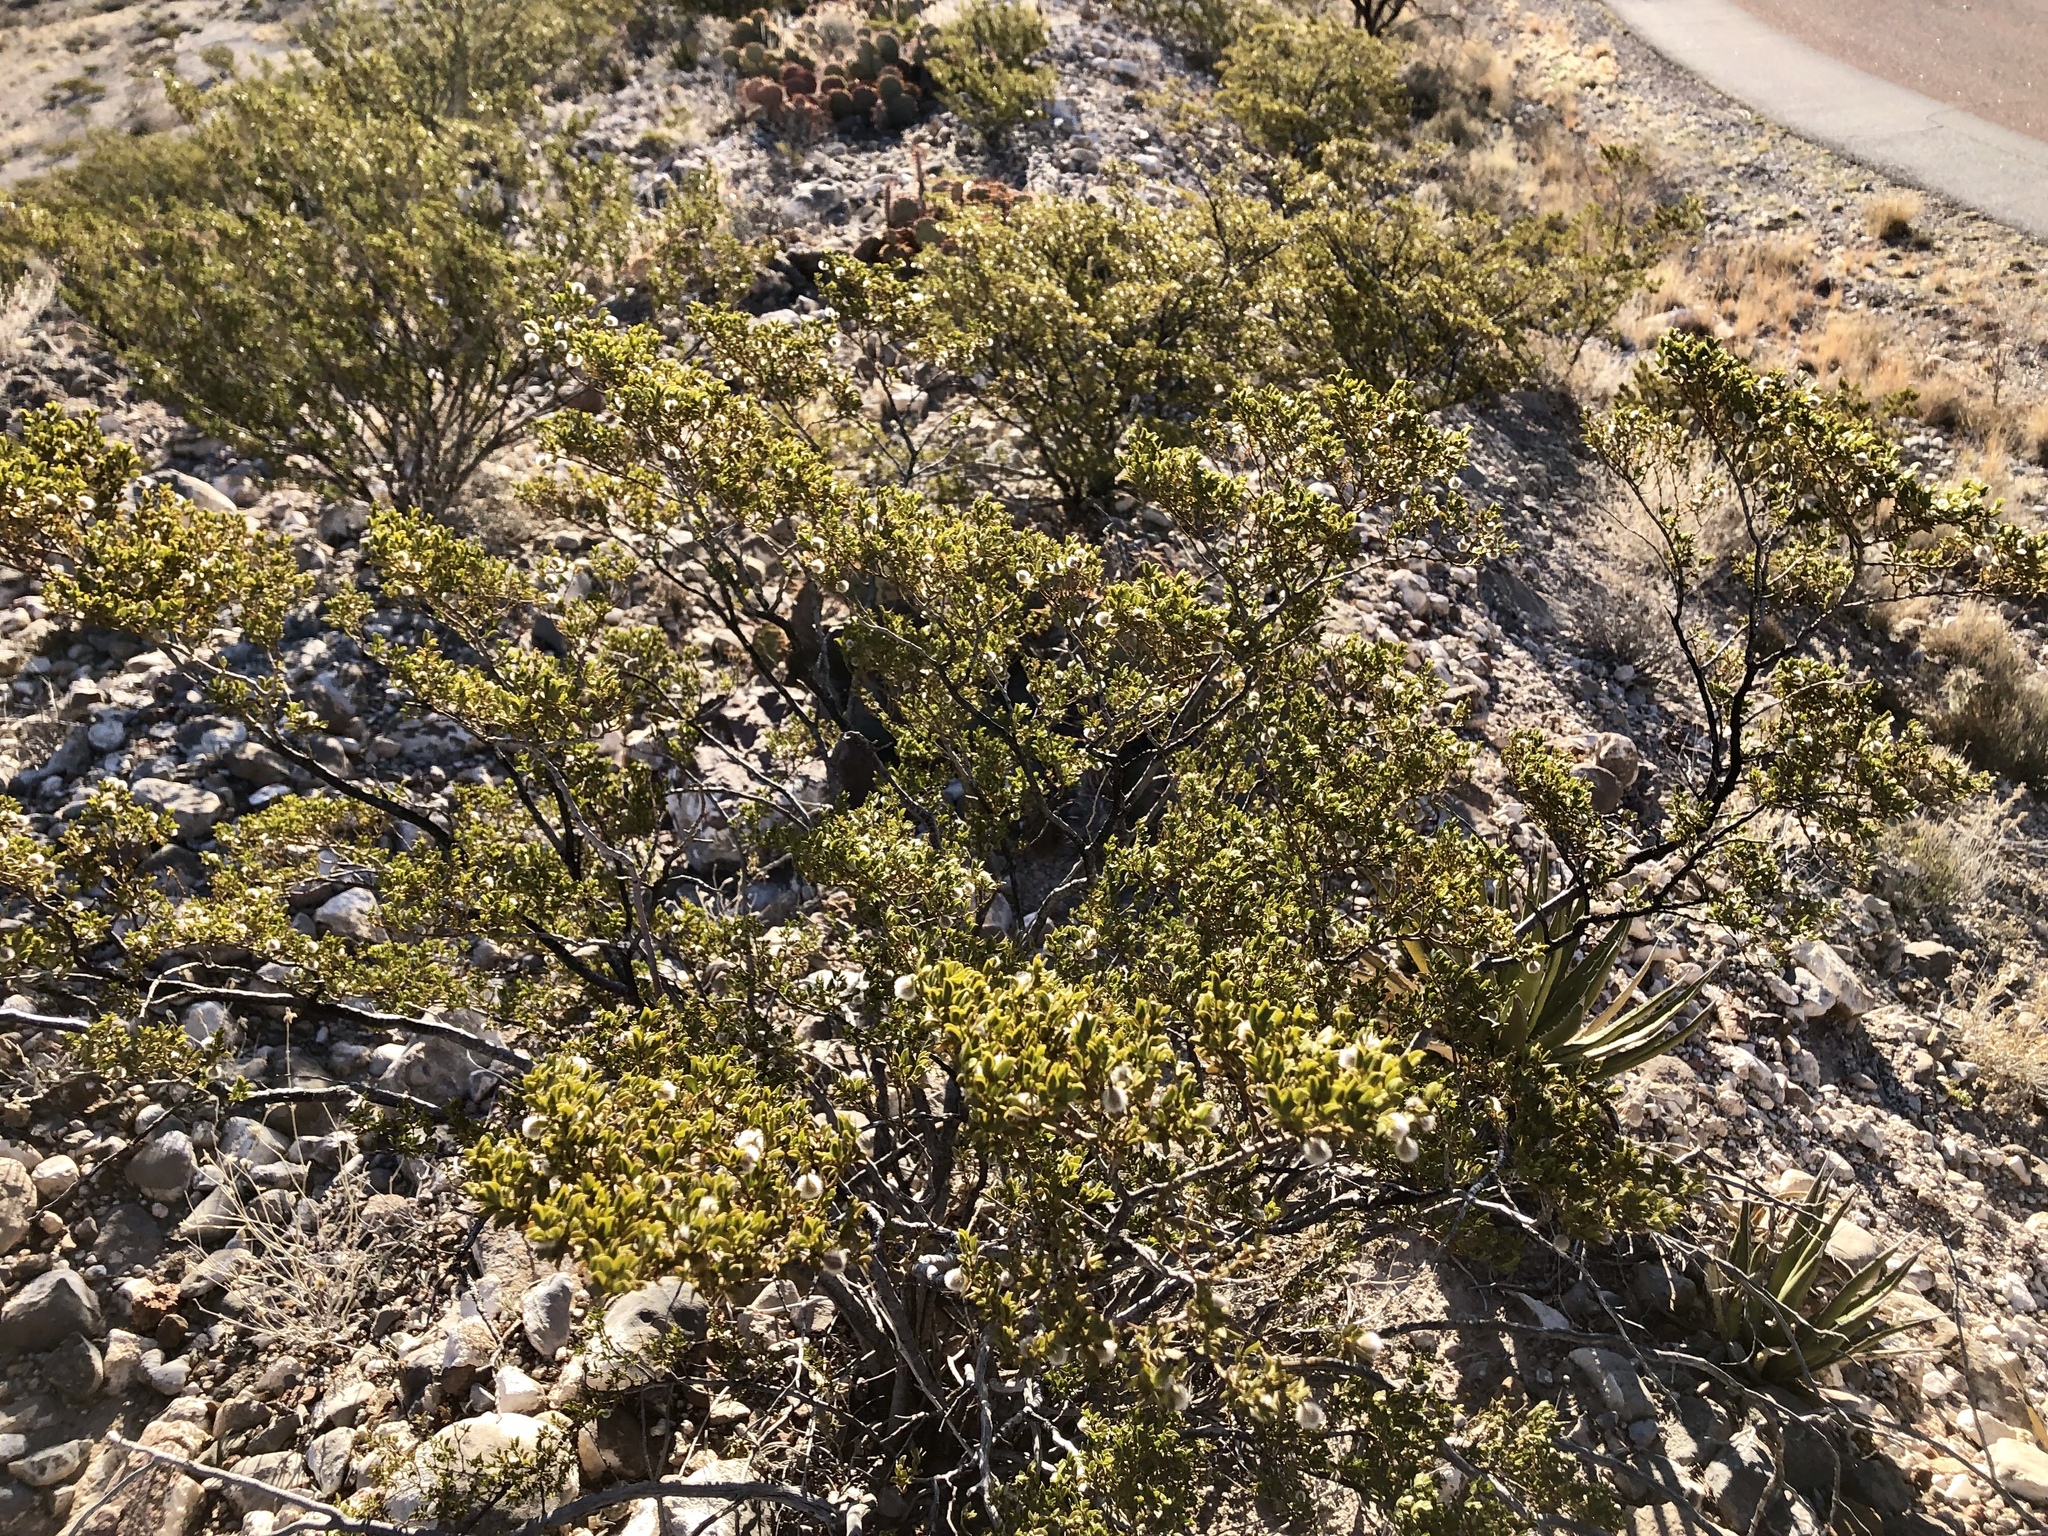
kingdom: Plantae
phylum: Tracheophyta
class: Magnoliopsida
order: Zygophyllales
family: Zygophyllaceae
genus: Larrea
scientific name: Larrea tridentata
